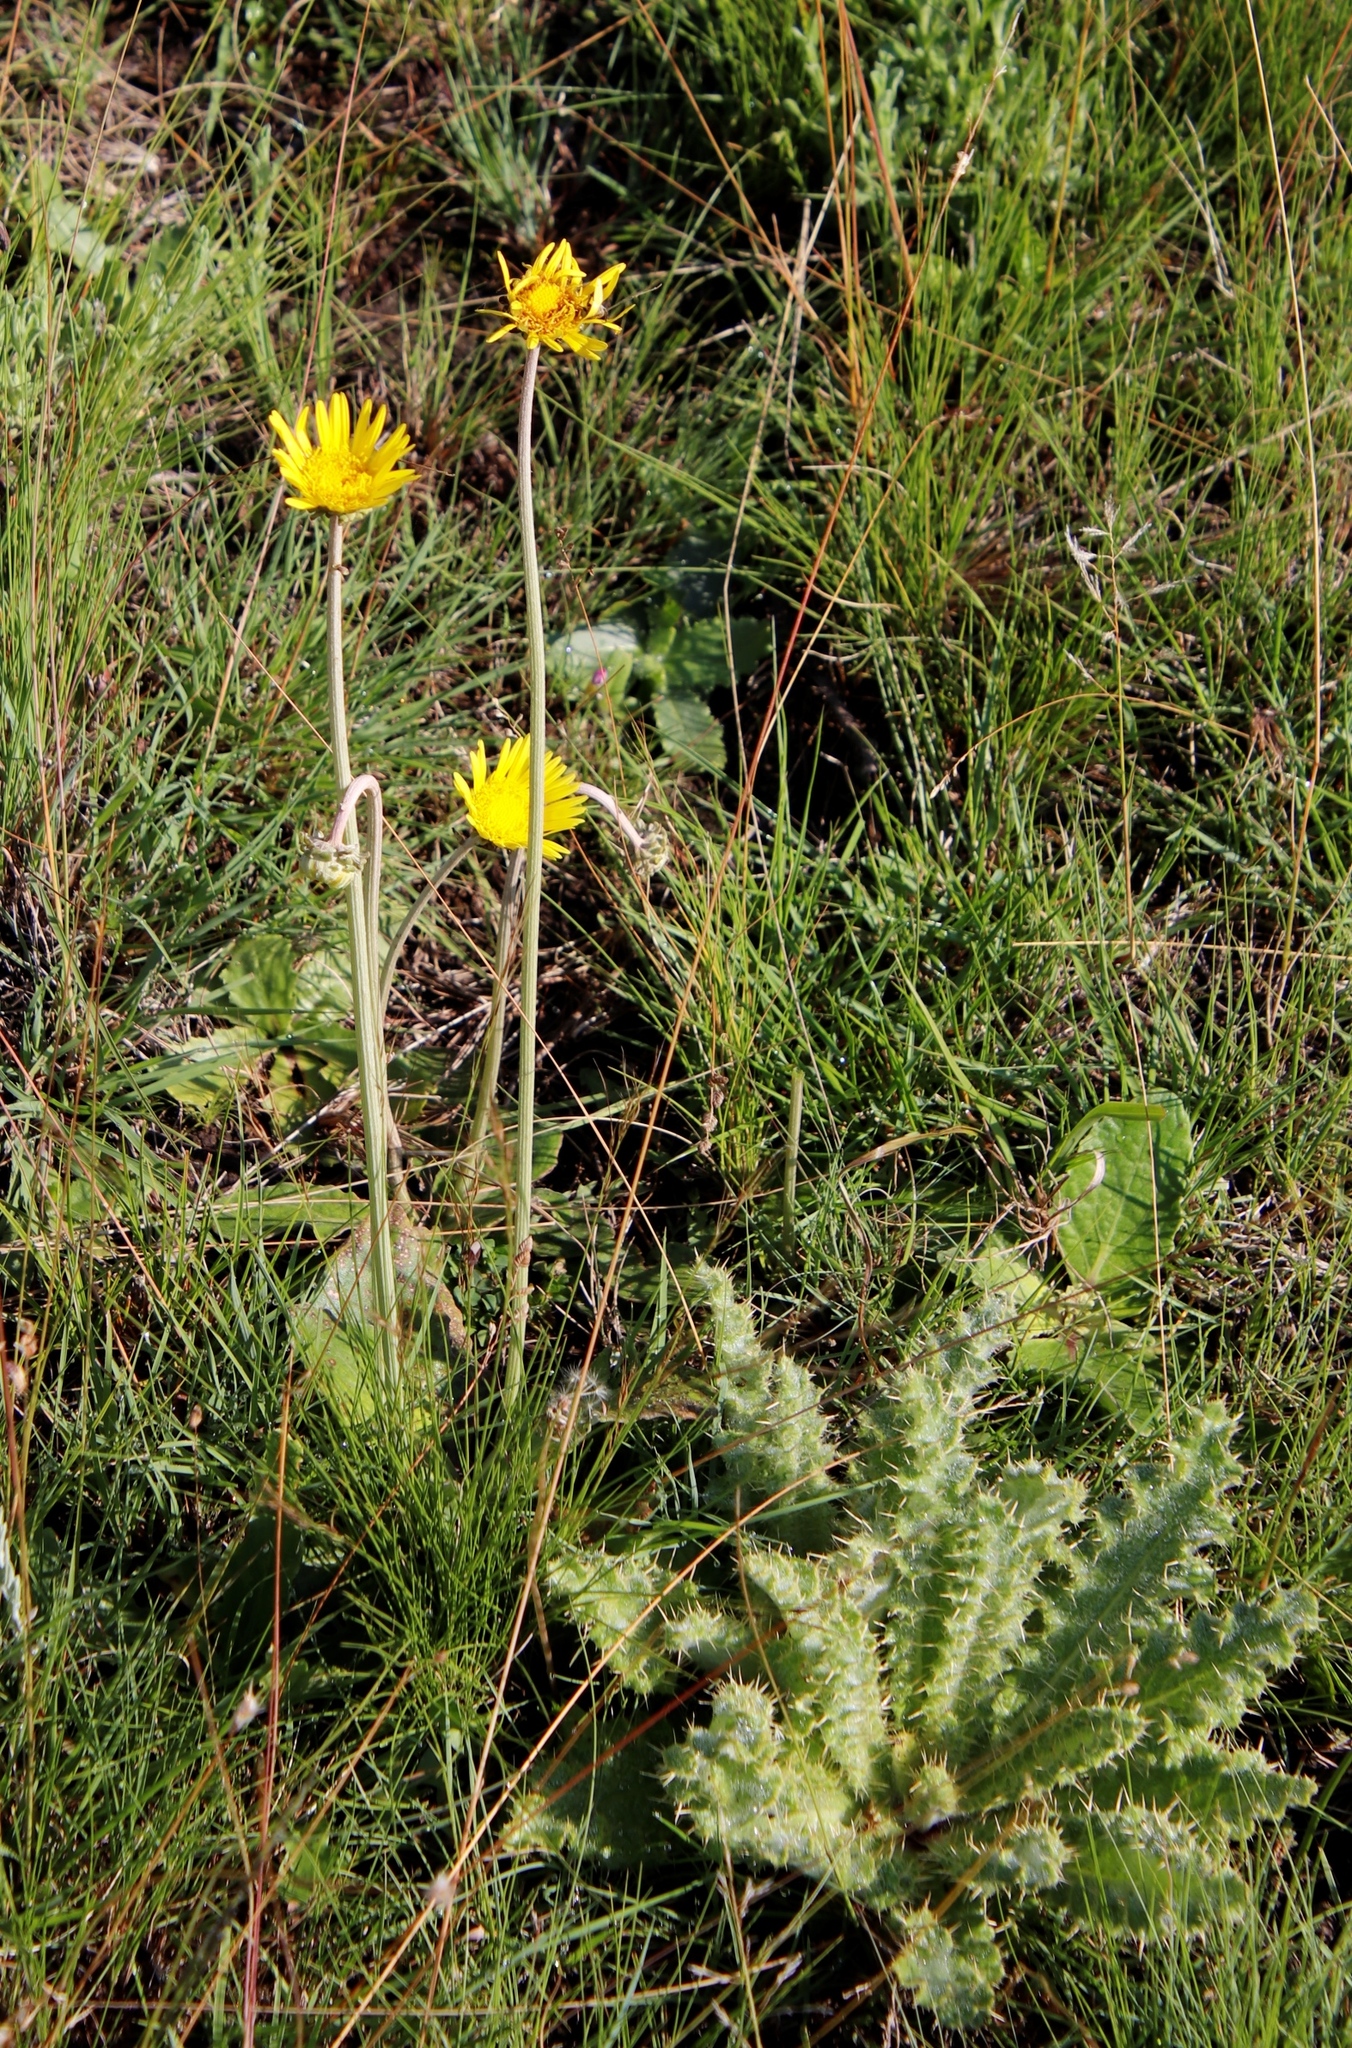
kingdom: Plantae
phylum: Tracheophyta
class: Magnoliopsida
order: Asterales
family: Asteraceae
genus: Haplocarpha
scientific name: Haplocarpha scaposa
